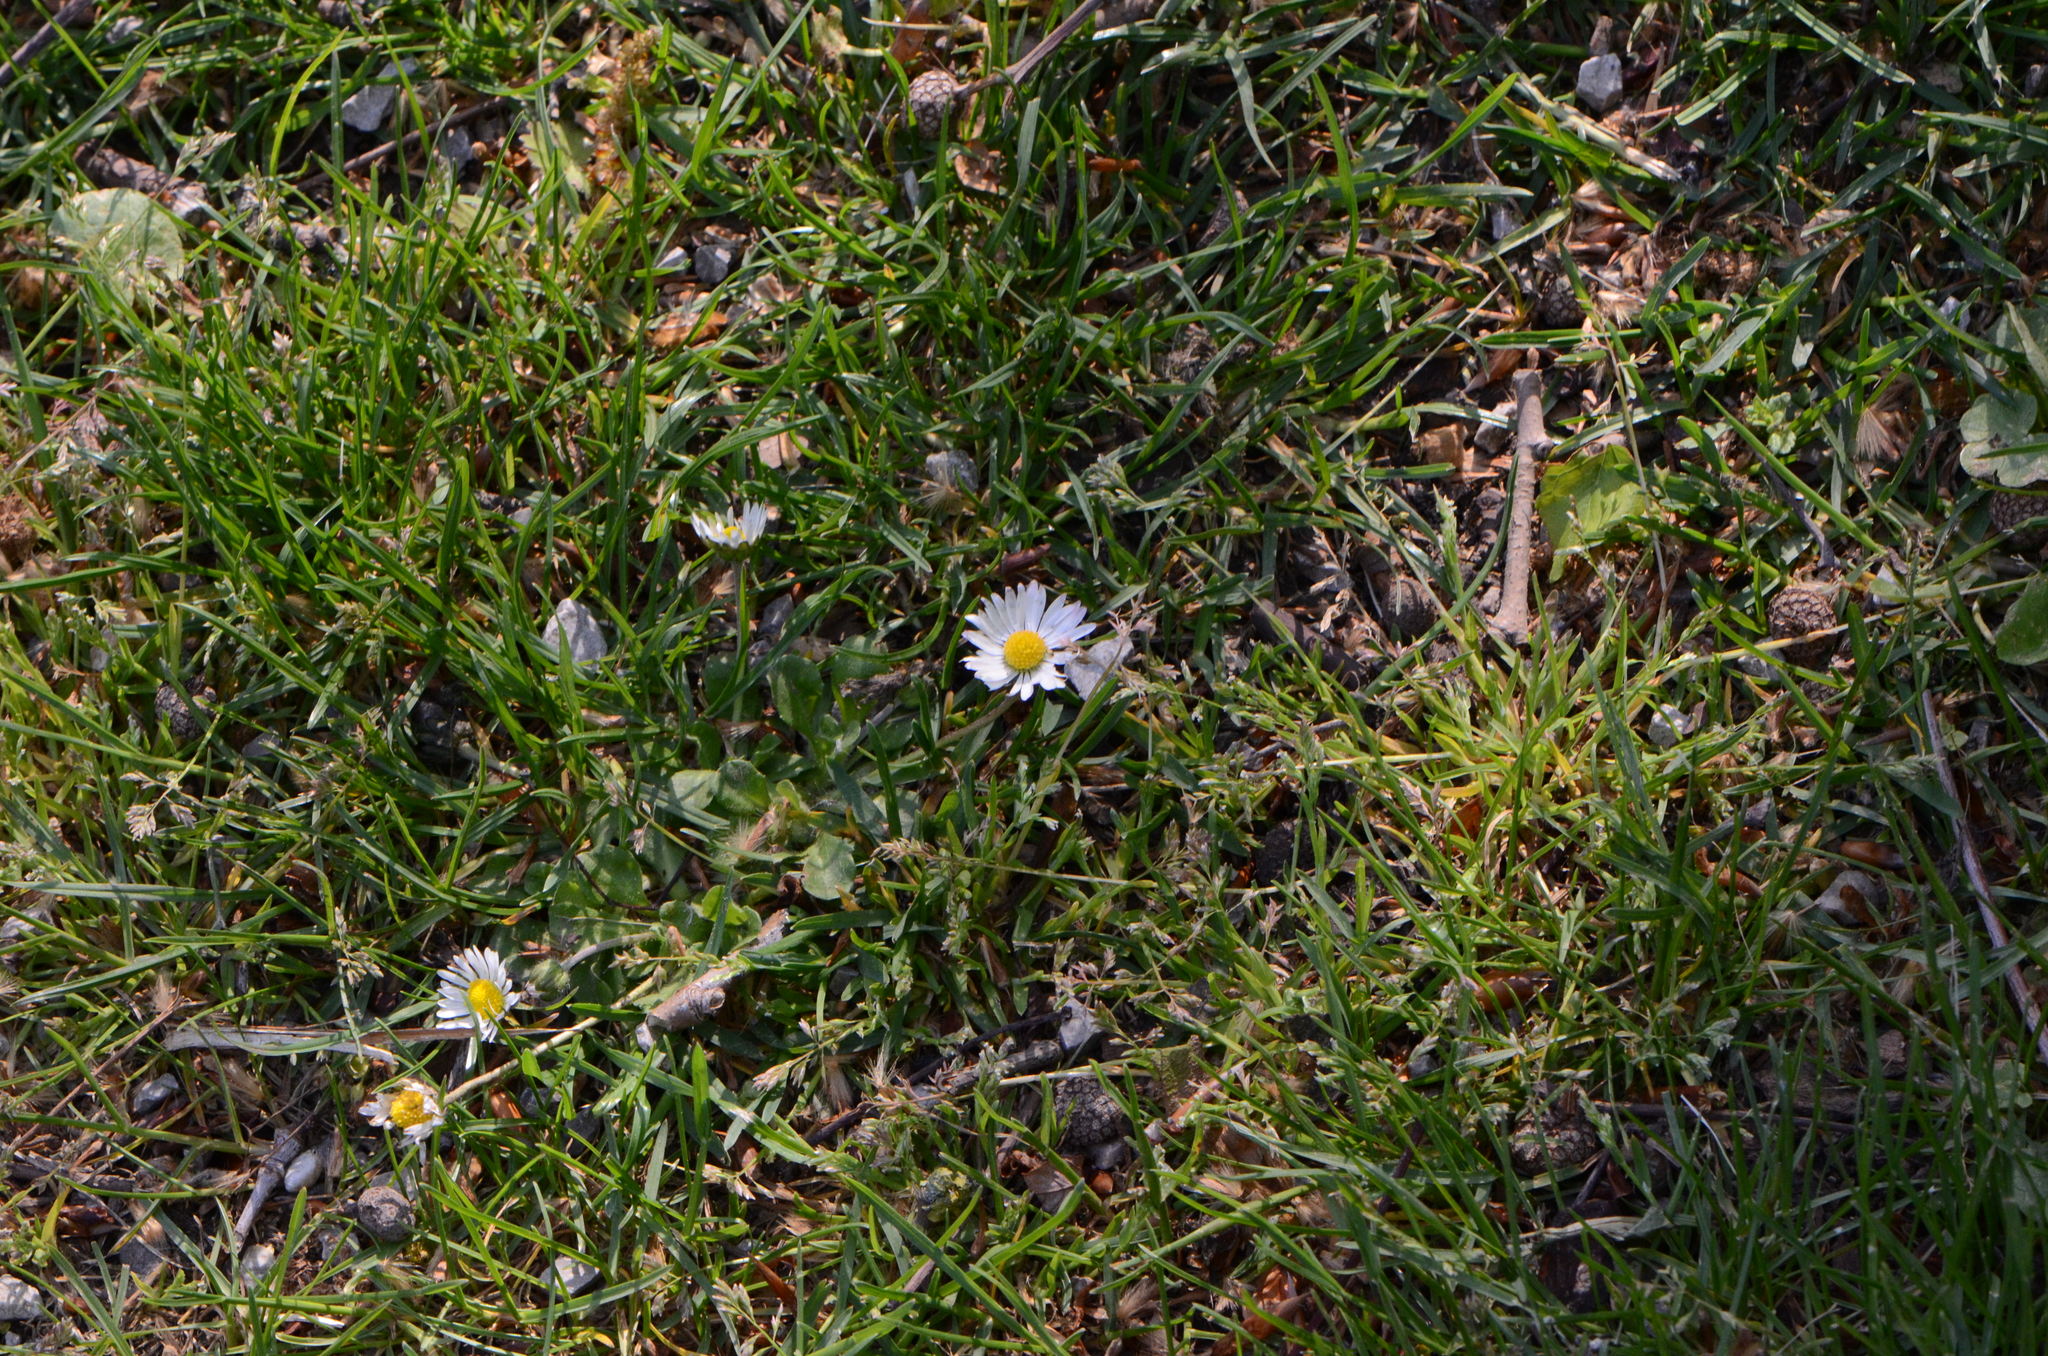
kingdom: Plantae
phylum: Tracheophyta
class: Magnoliopsida
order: Asterales
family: Asteraceae
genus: Bellis
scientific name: Bellis perennis
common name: Lawndaisy
